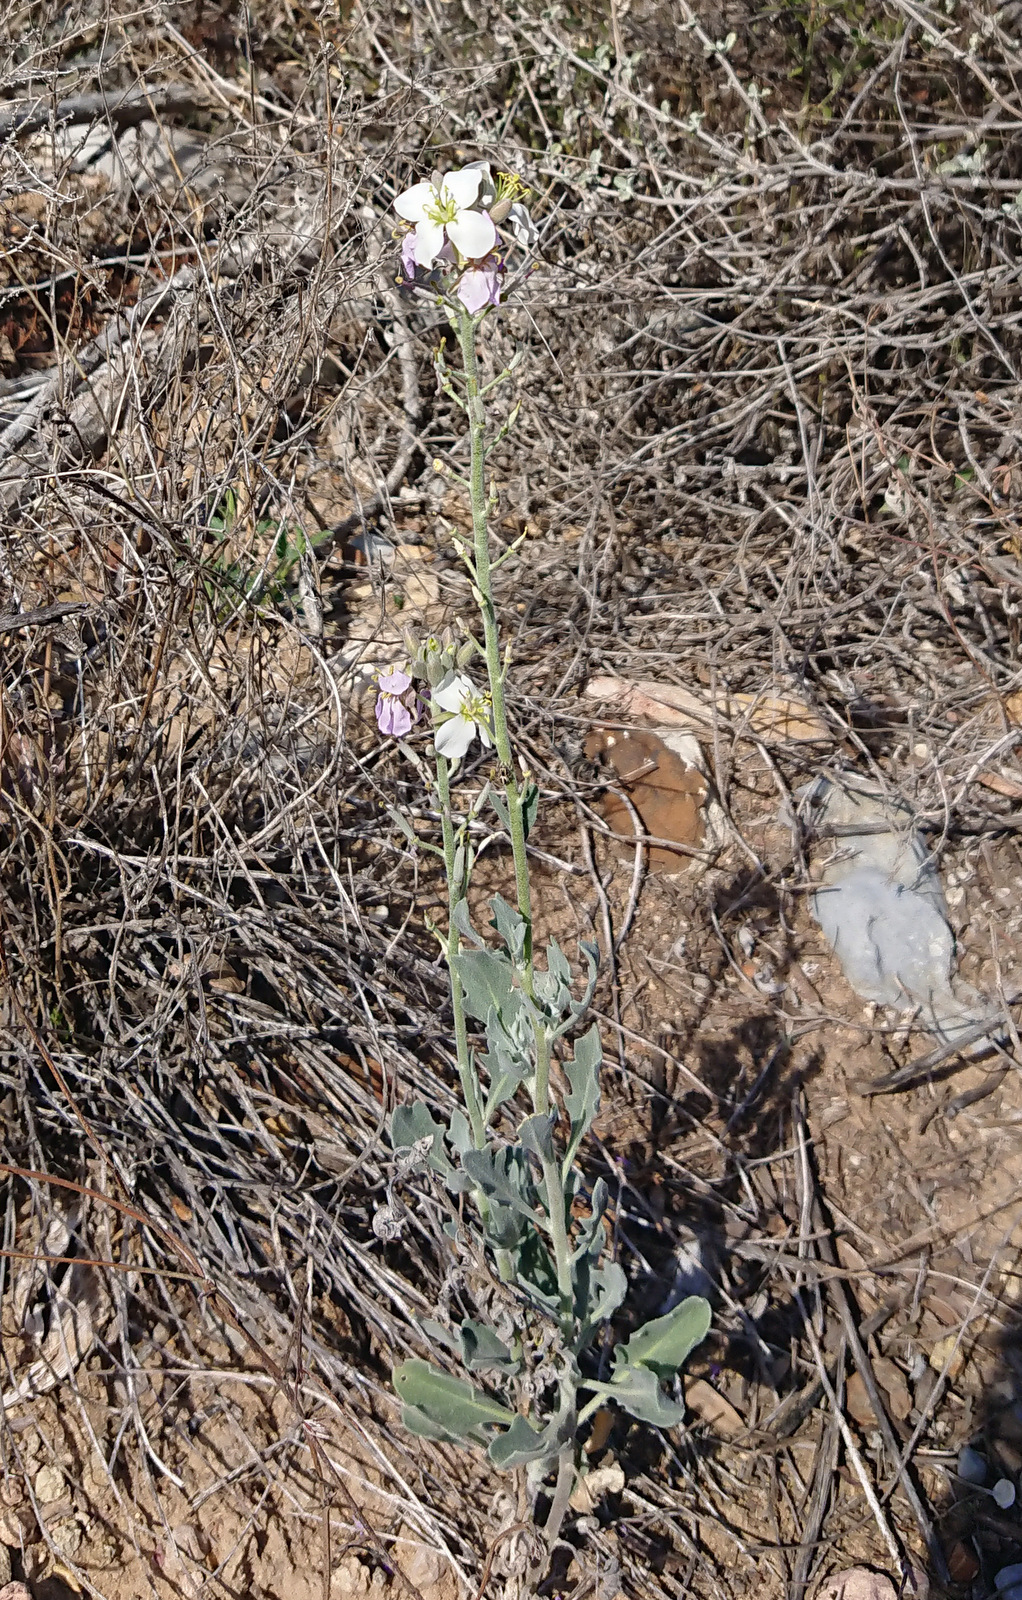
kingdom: Plantae
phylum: Tracheophyta
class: Magnoliopsida
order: Brassicales
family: Brassicaceae
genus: Nerisyrenia
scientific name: Nerisyrenia camporum
